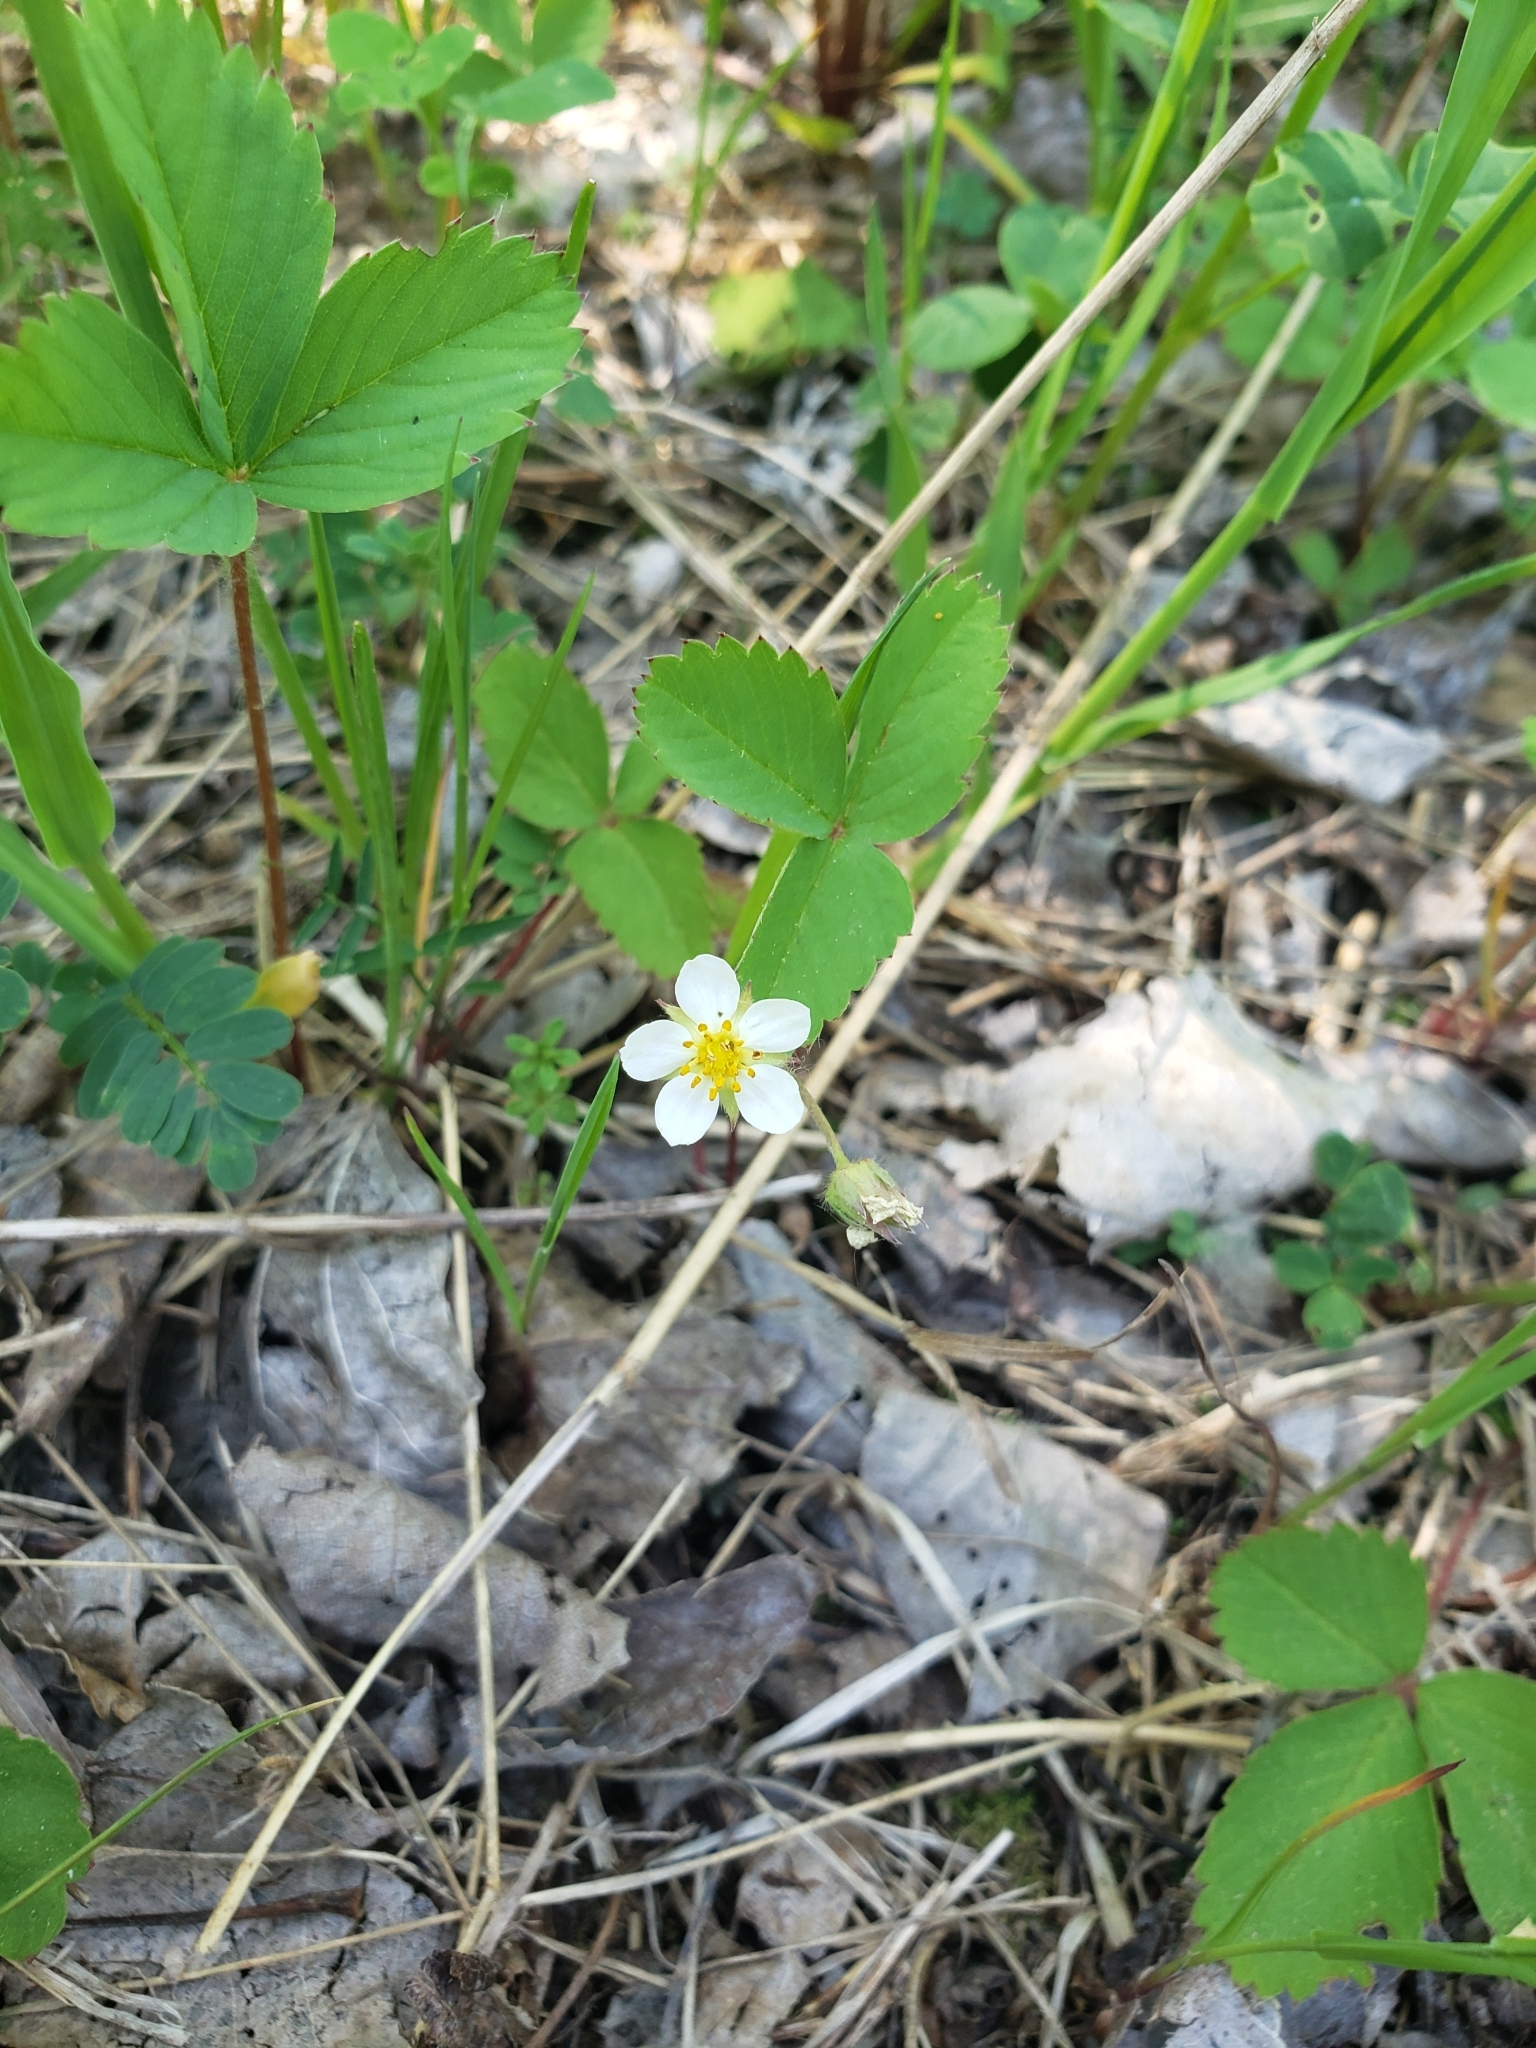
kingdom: Plantae
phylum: Tracheophyta
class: Magnoliopsida
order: Rosales
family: Rosaceae
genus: Fragaria
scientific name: Fragaria virginiana
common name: Thickleaved wild strawberry
